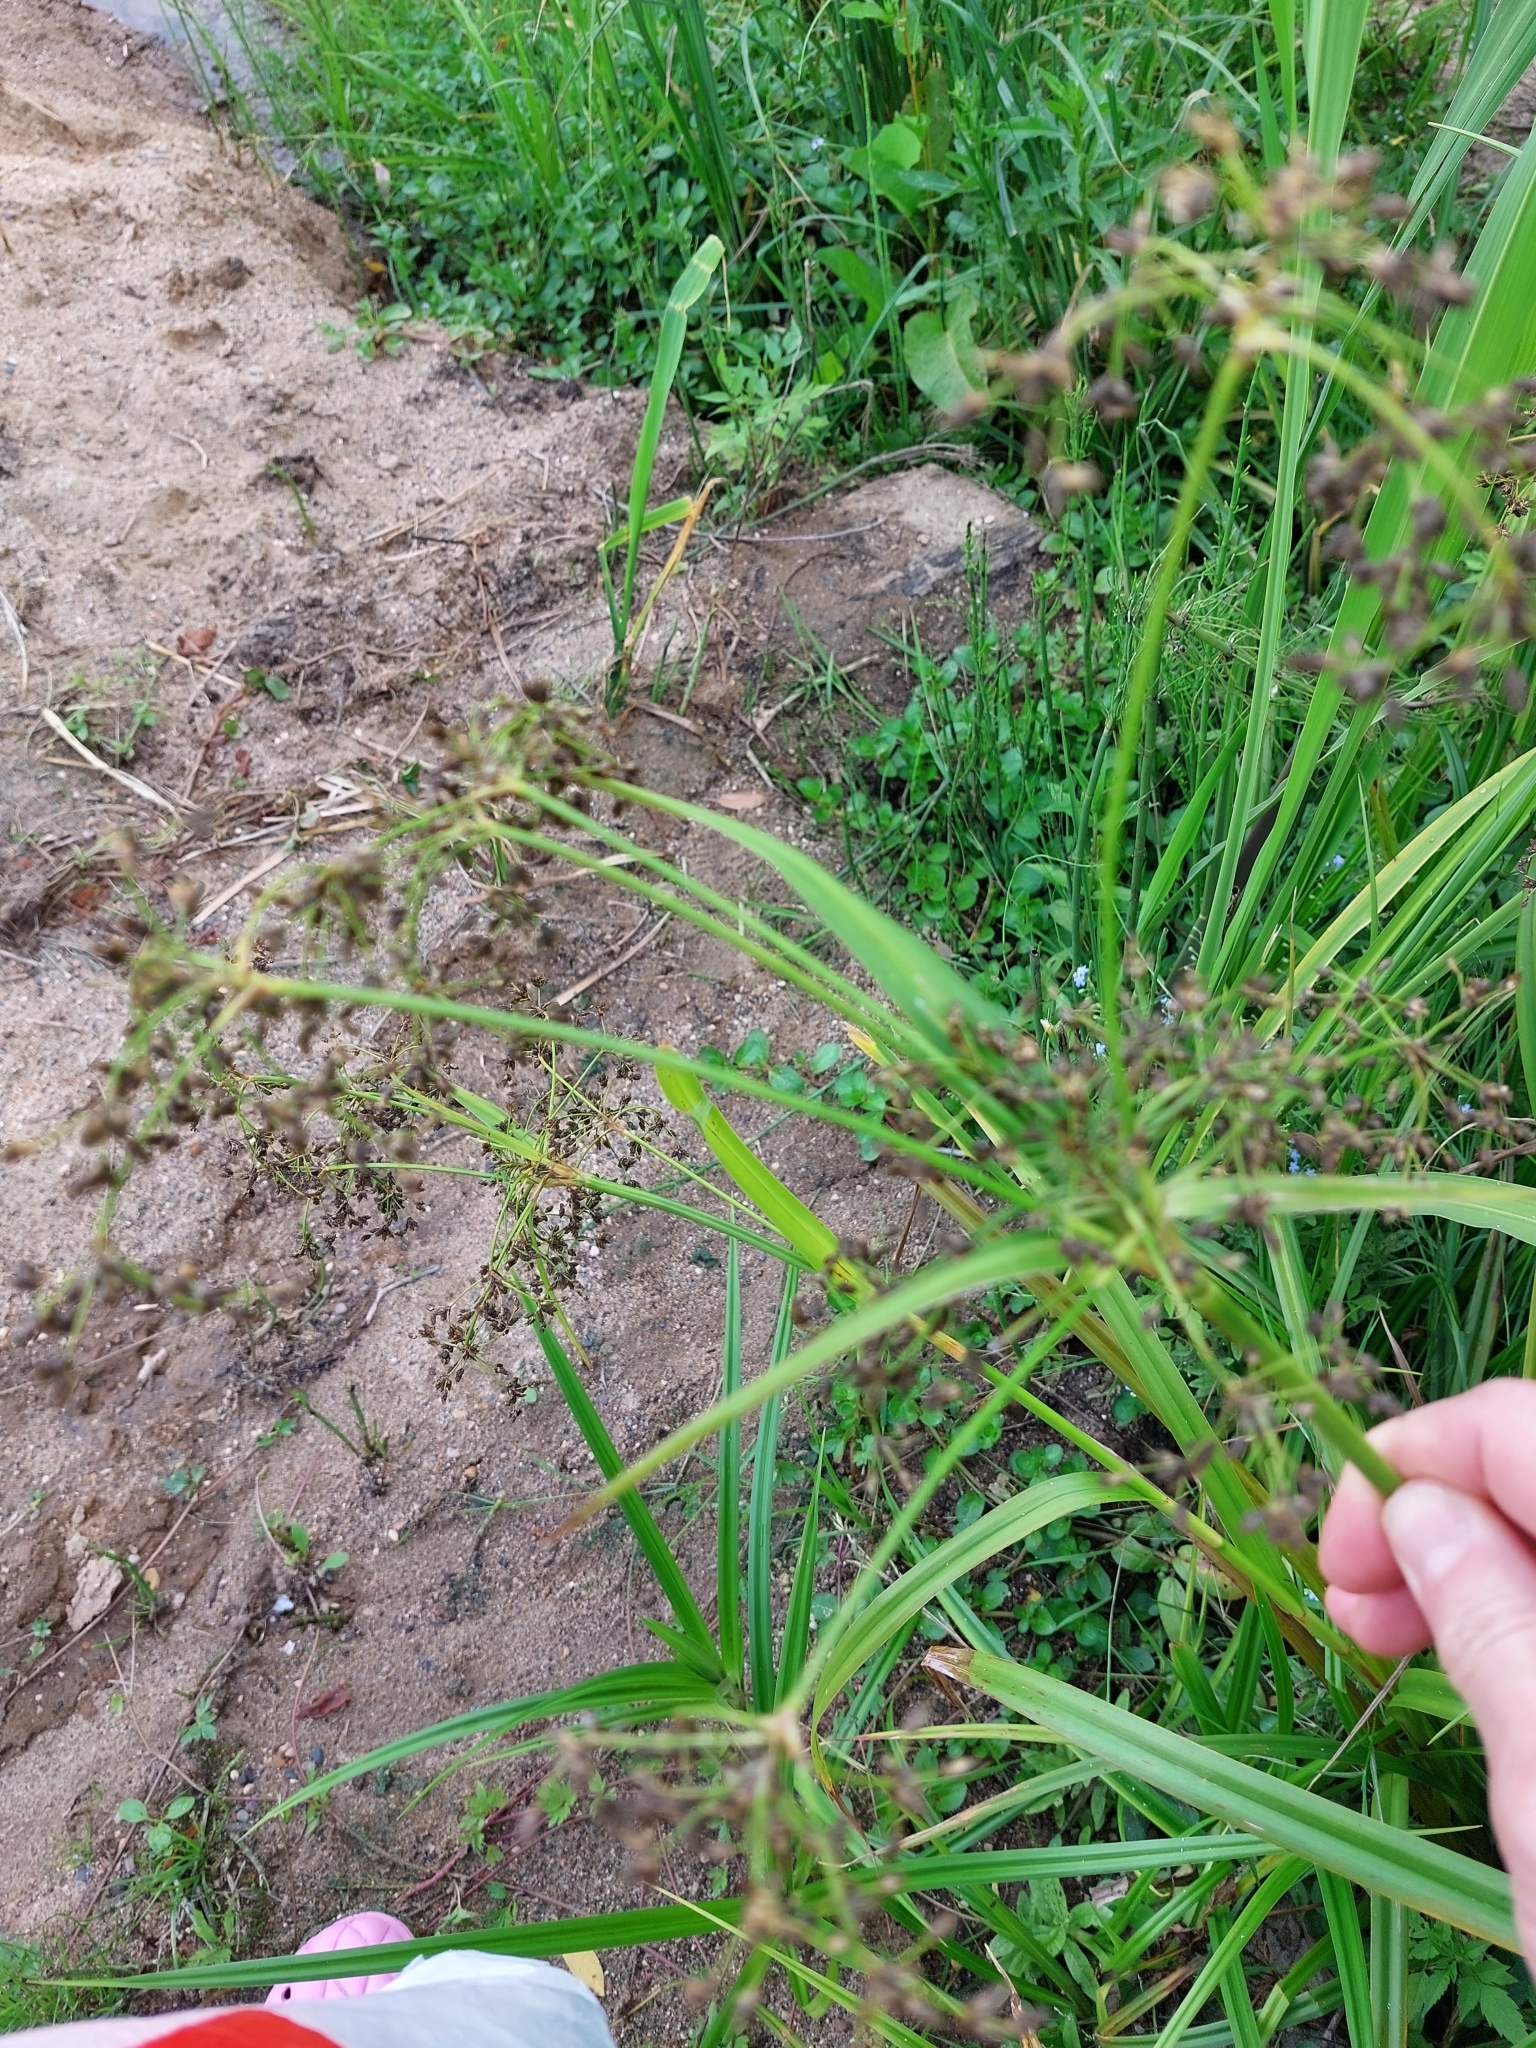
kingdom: Plantae
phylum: Tracheophyta
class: Liliopsida
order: Poales
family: Cyperaceae
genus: Scirpus
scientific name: Scirpus sylvaticus
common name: Wood club-rush
